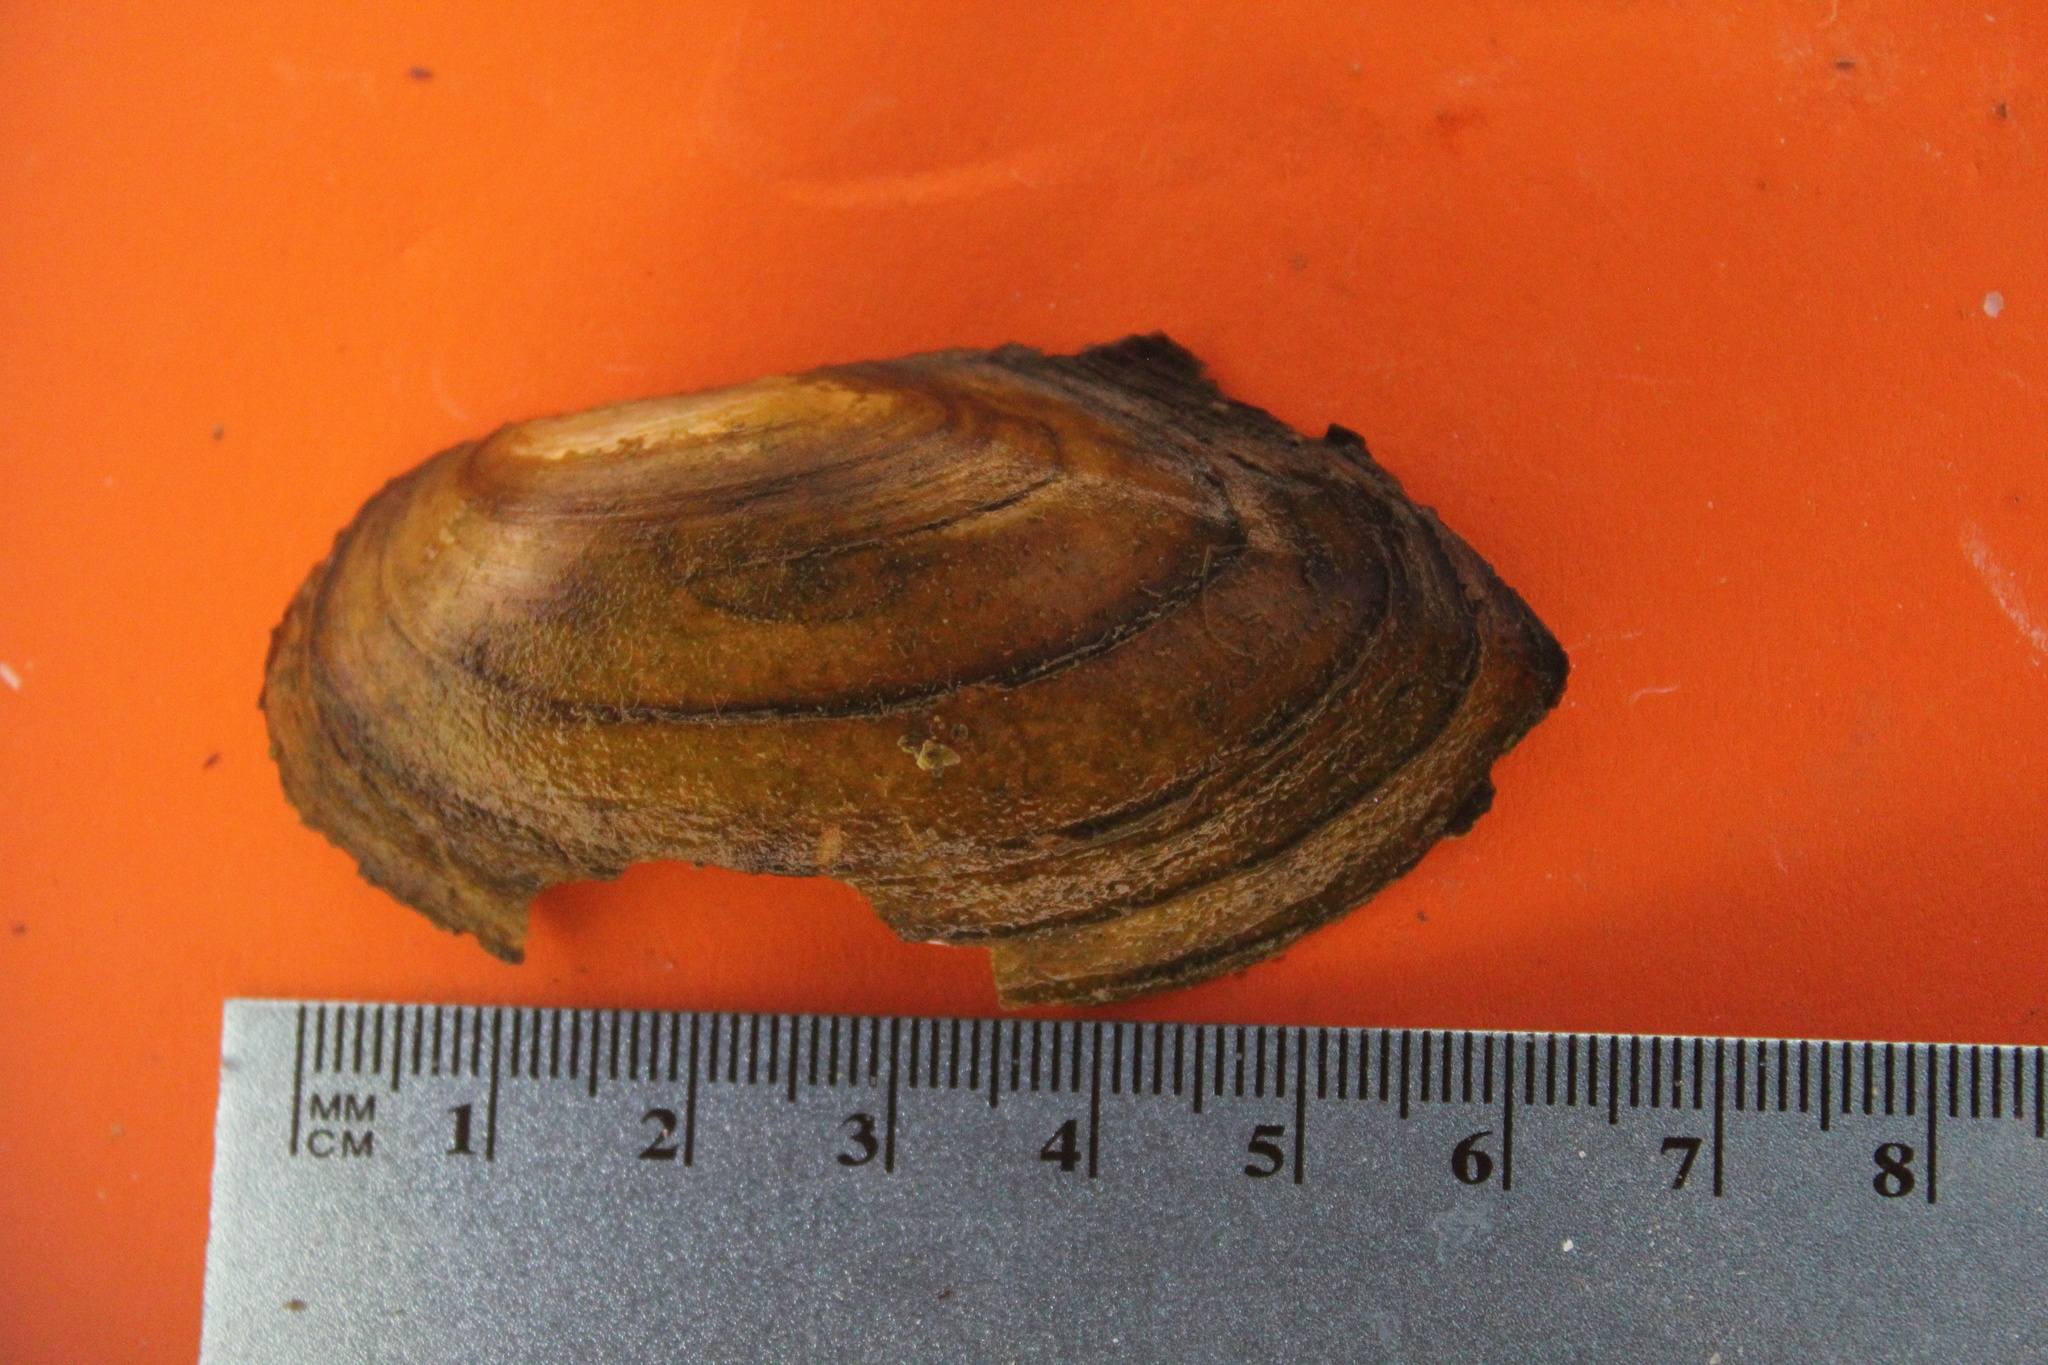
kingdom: Animalia
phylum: Mollusca
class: Bivalvia
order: Unionida
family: Unionidae
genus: Utterbackia
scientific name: Utterbackia imbecillis
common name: Paper pondshell
